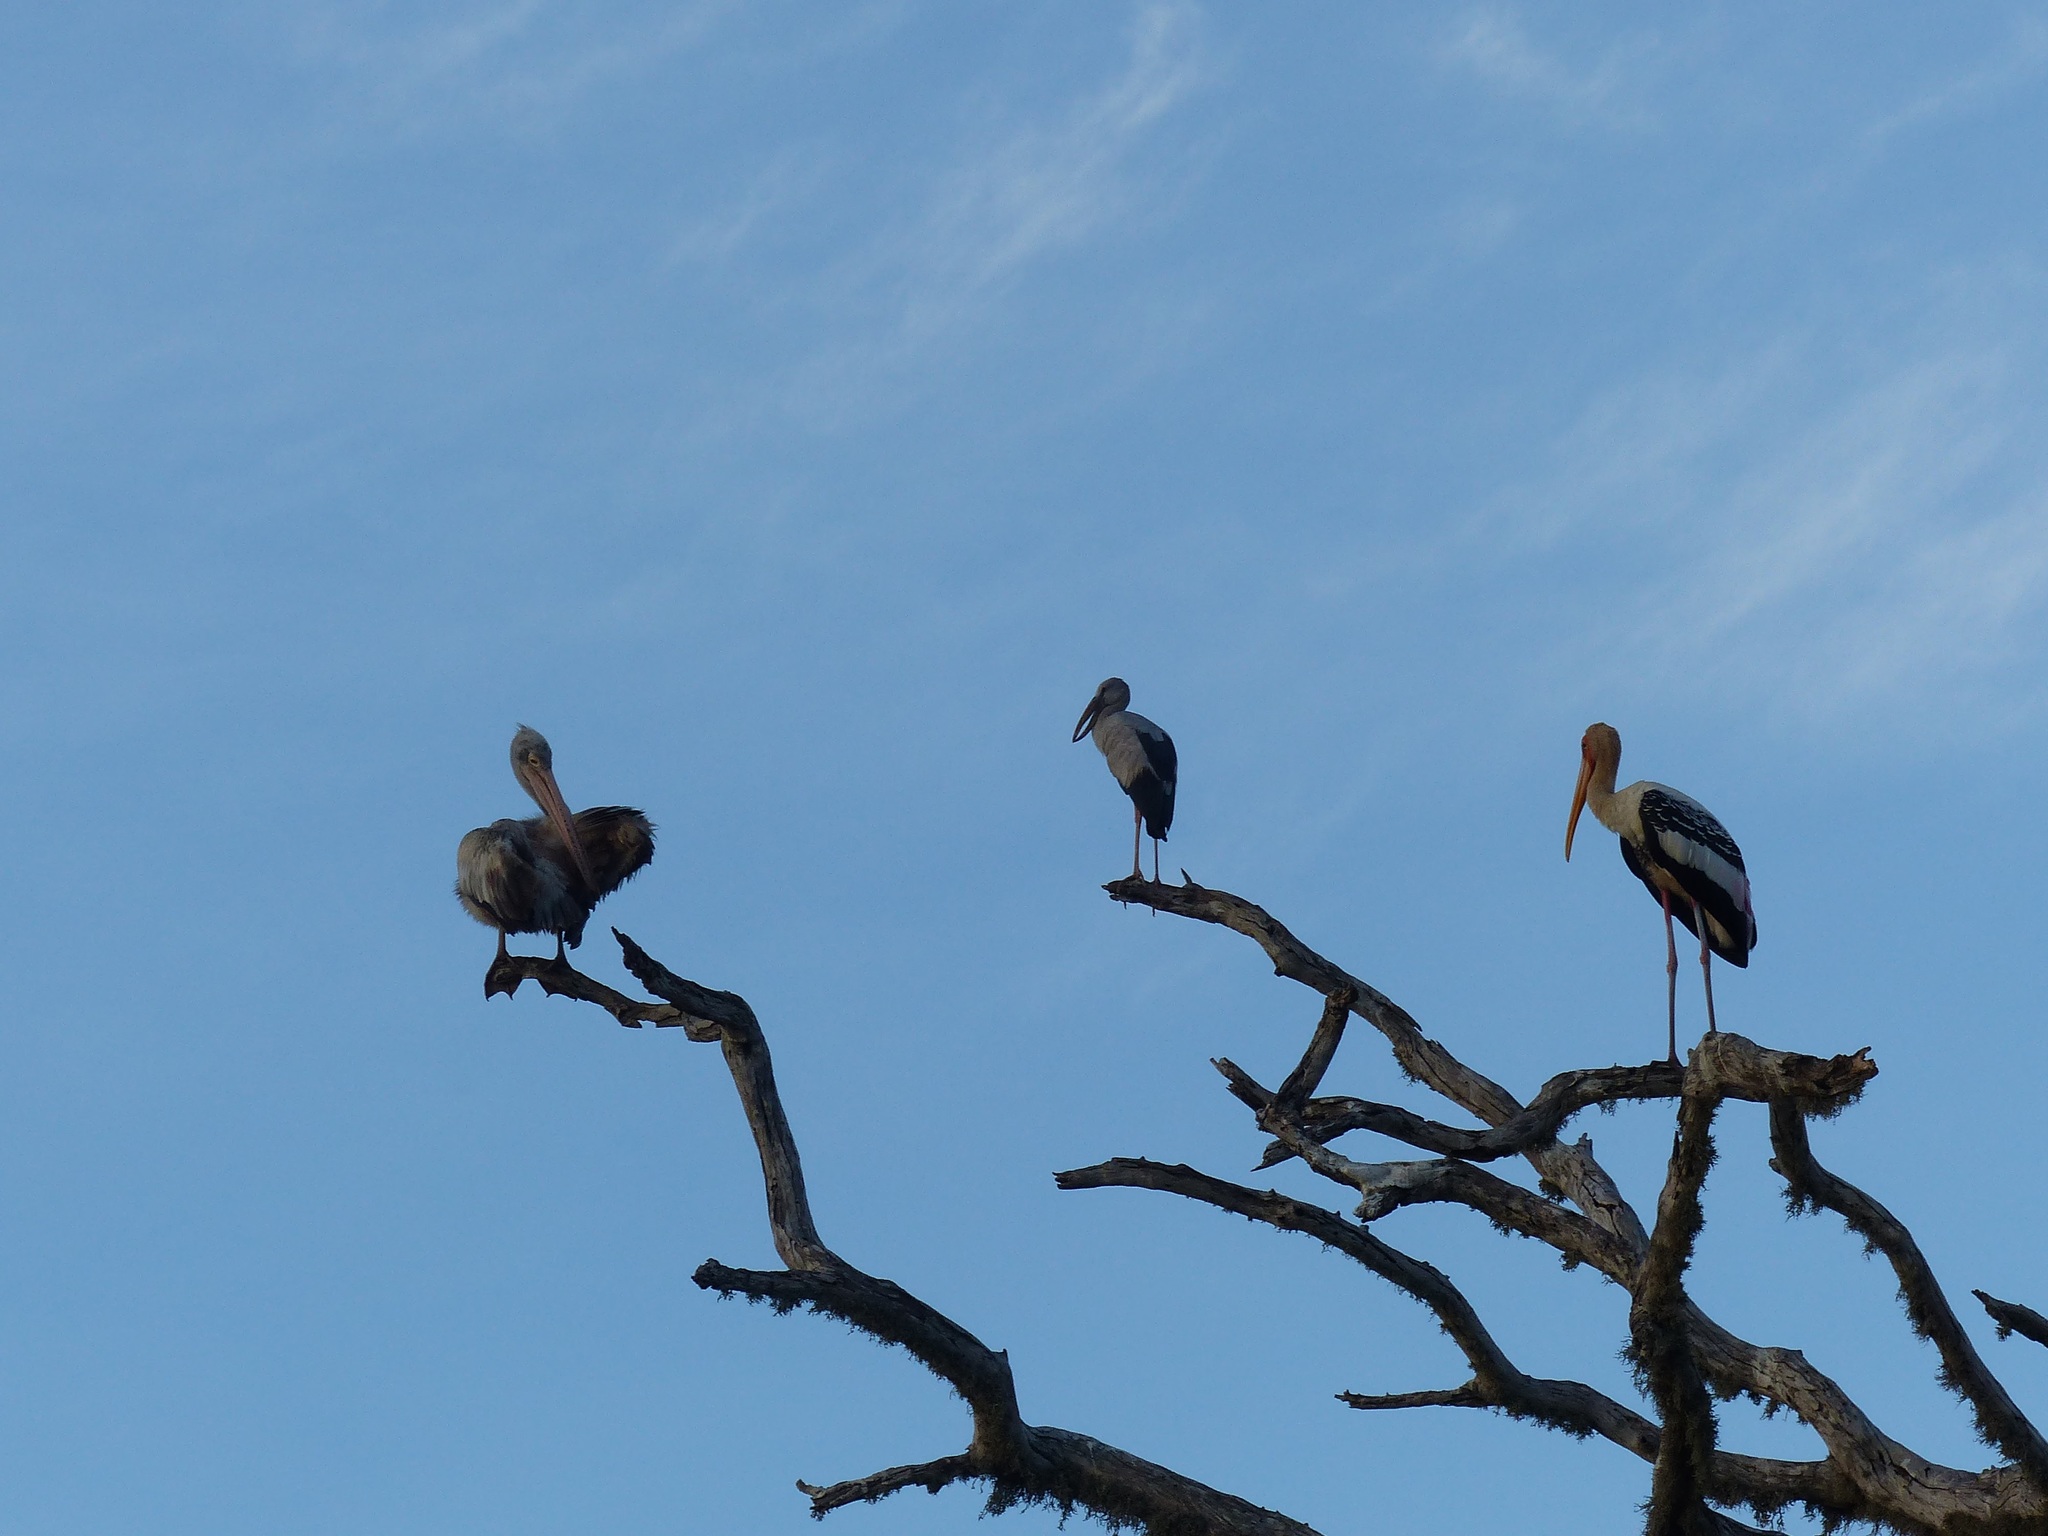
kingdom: Animalia
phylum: Chordata
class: Aves
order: Pelecaniformes
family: Pelecanidae
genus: Pelecanus
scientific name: Pelecanus philippensis
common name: Spot-billed pelican
